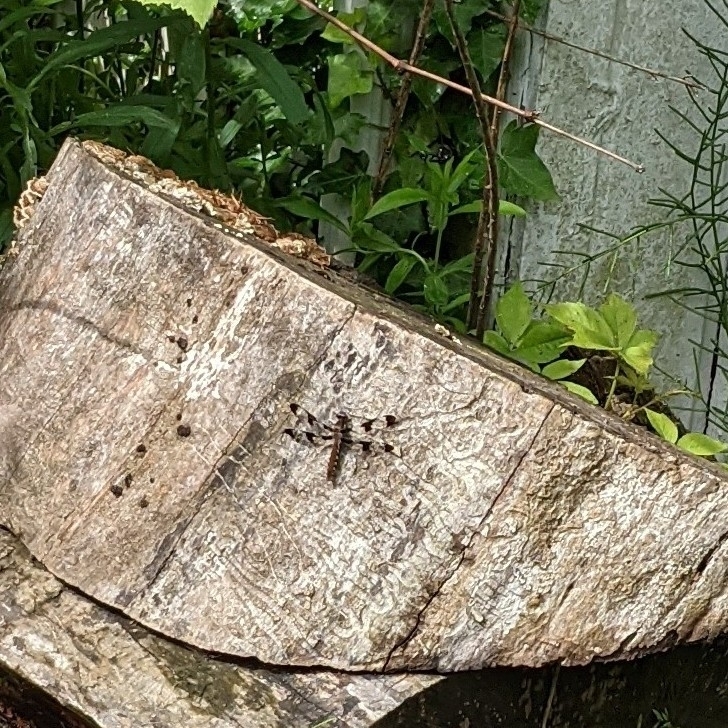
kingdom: Animalia
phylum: Arthropoda
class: Insecta
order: Odonata
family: Libellulidae
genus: Plathemis
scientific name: Plathemis lydia
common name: Common whitetail
